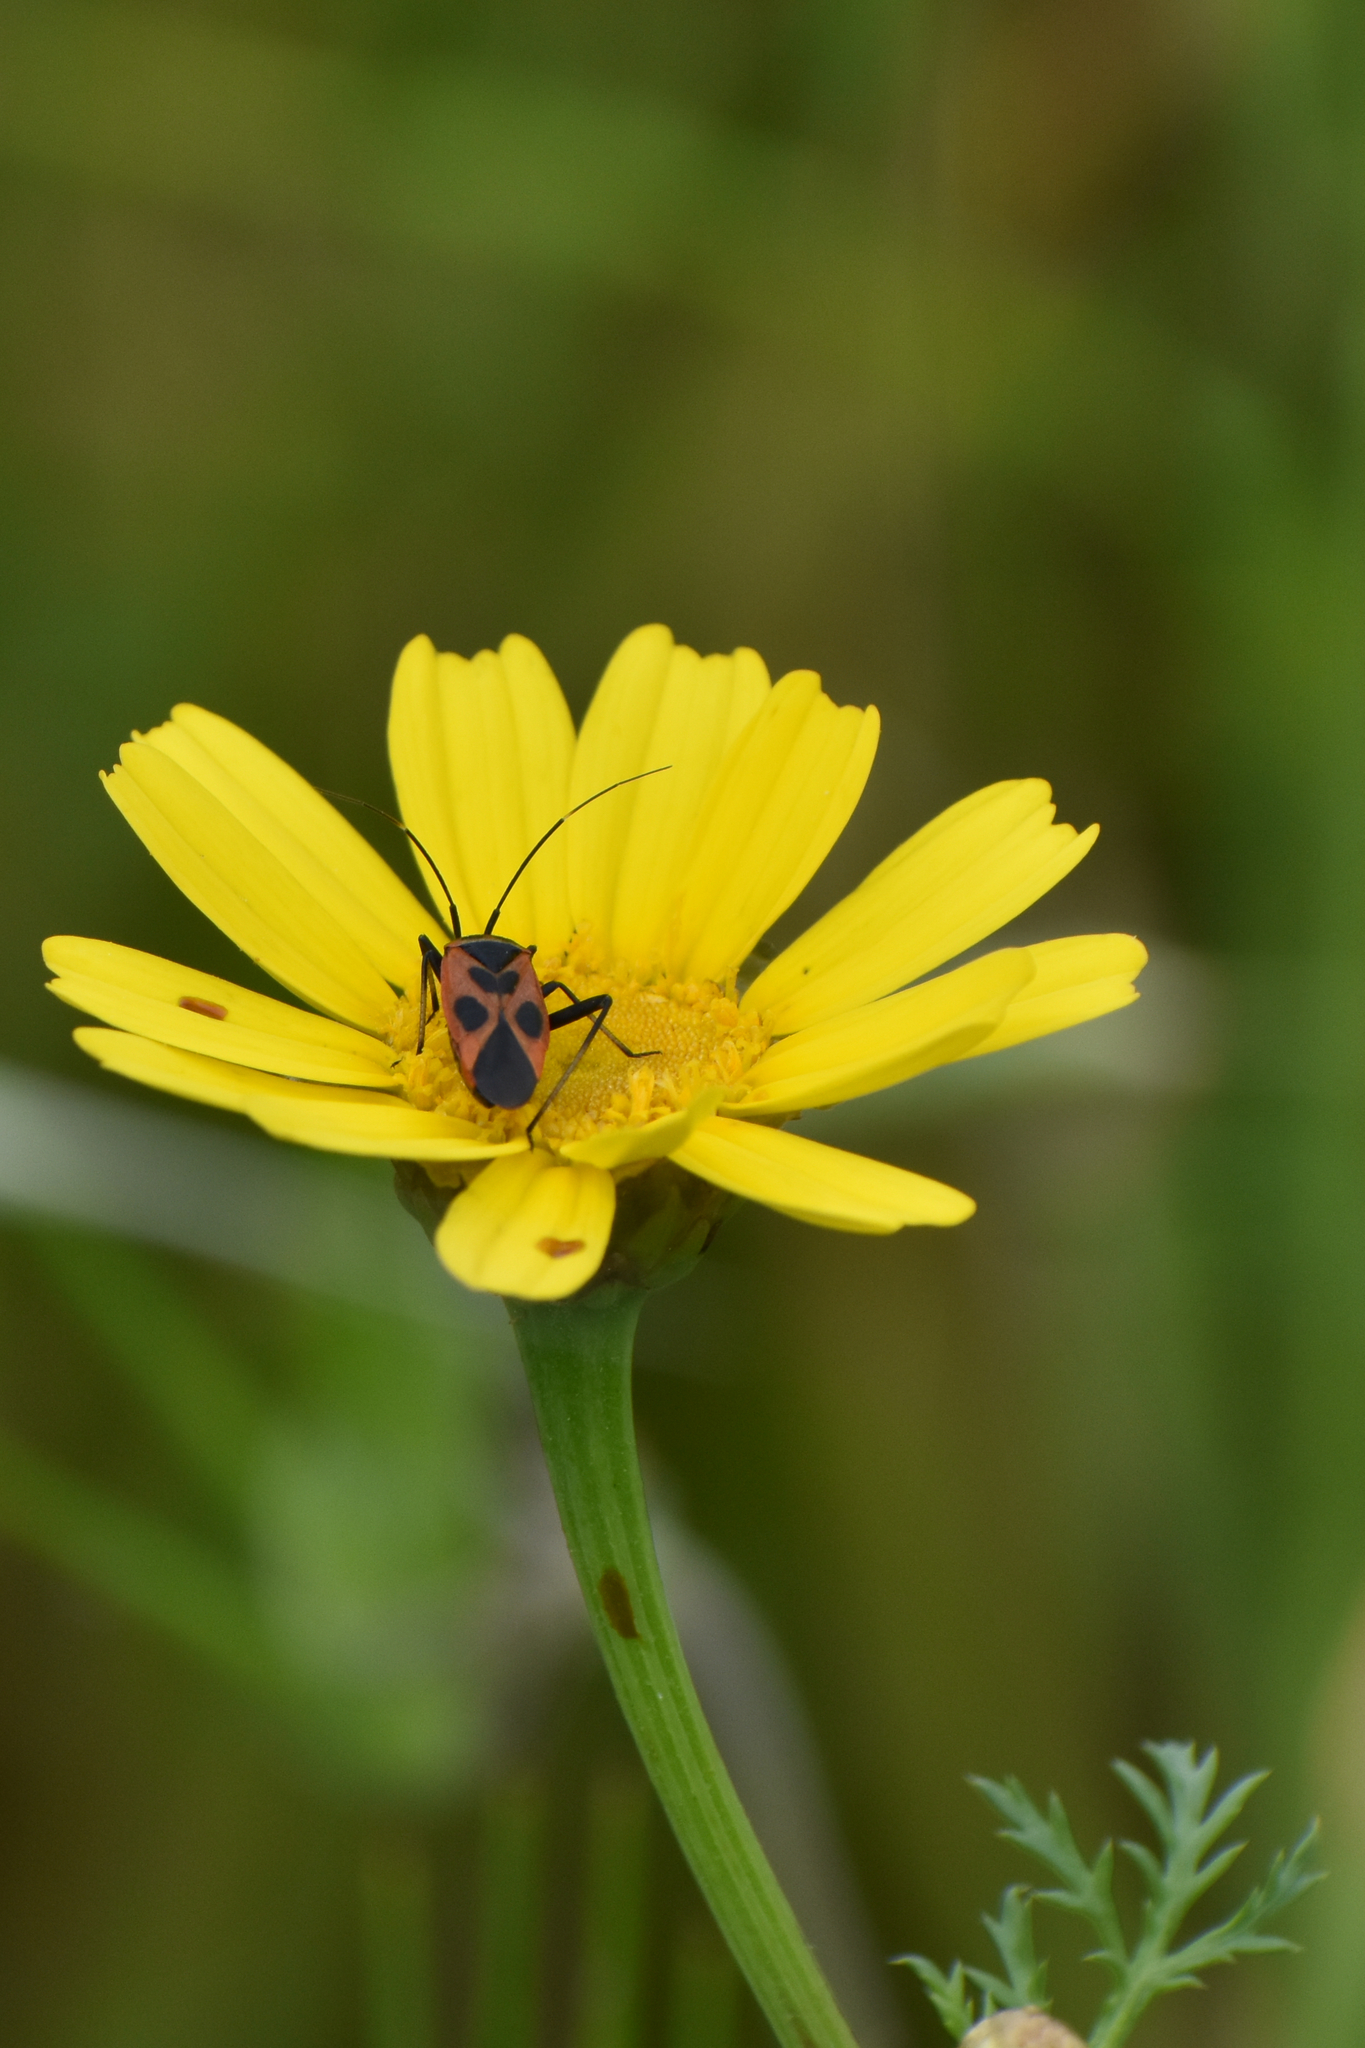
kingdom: Animalia
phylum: Arthropoda
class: Insecta
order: Hemiptera
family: Miridae
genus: Calocoris
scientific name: Calocoris nemoralis
